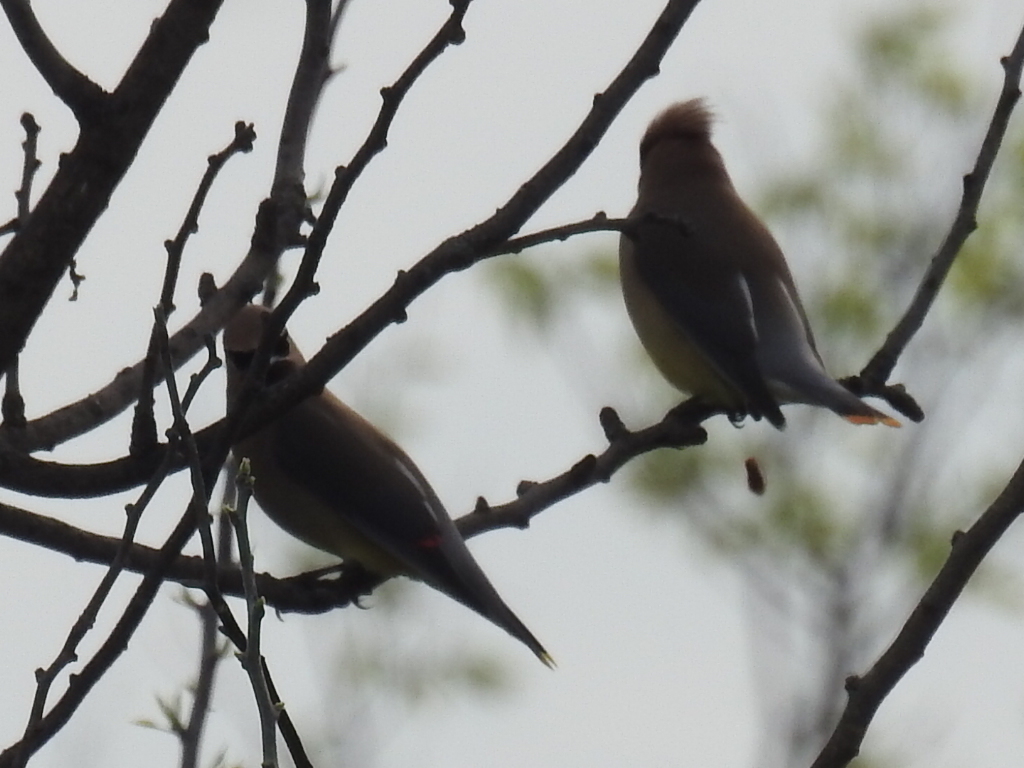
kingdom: Animalia
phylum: Chordata
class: Aves
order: Passeriformes
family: Bombycillidae
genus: Bombycilla
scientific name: Bombycilla cedrorum
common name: Cedar waxwing
